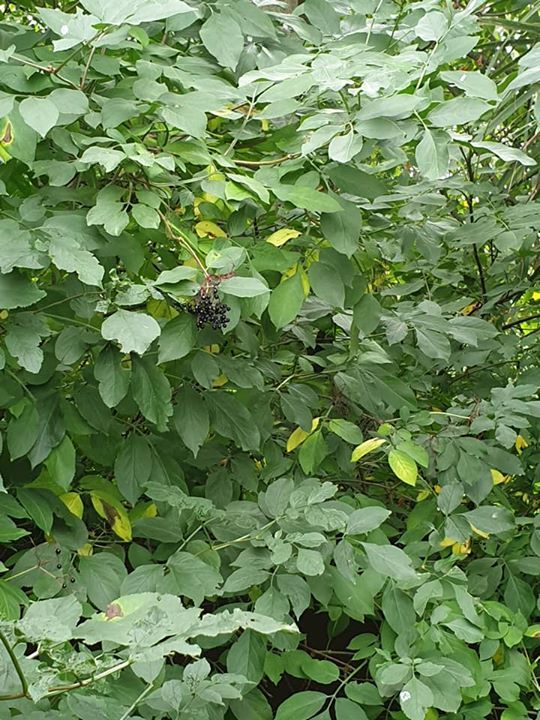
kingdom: Plantae
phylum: Tracheophyta
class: Magnoliopsida
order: Dipsacales
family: Viburnaceae
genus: Sambucus
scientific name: Sambucus nigra
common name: Elder
